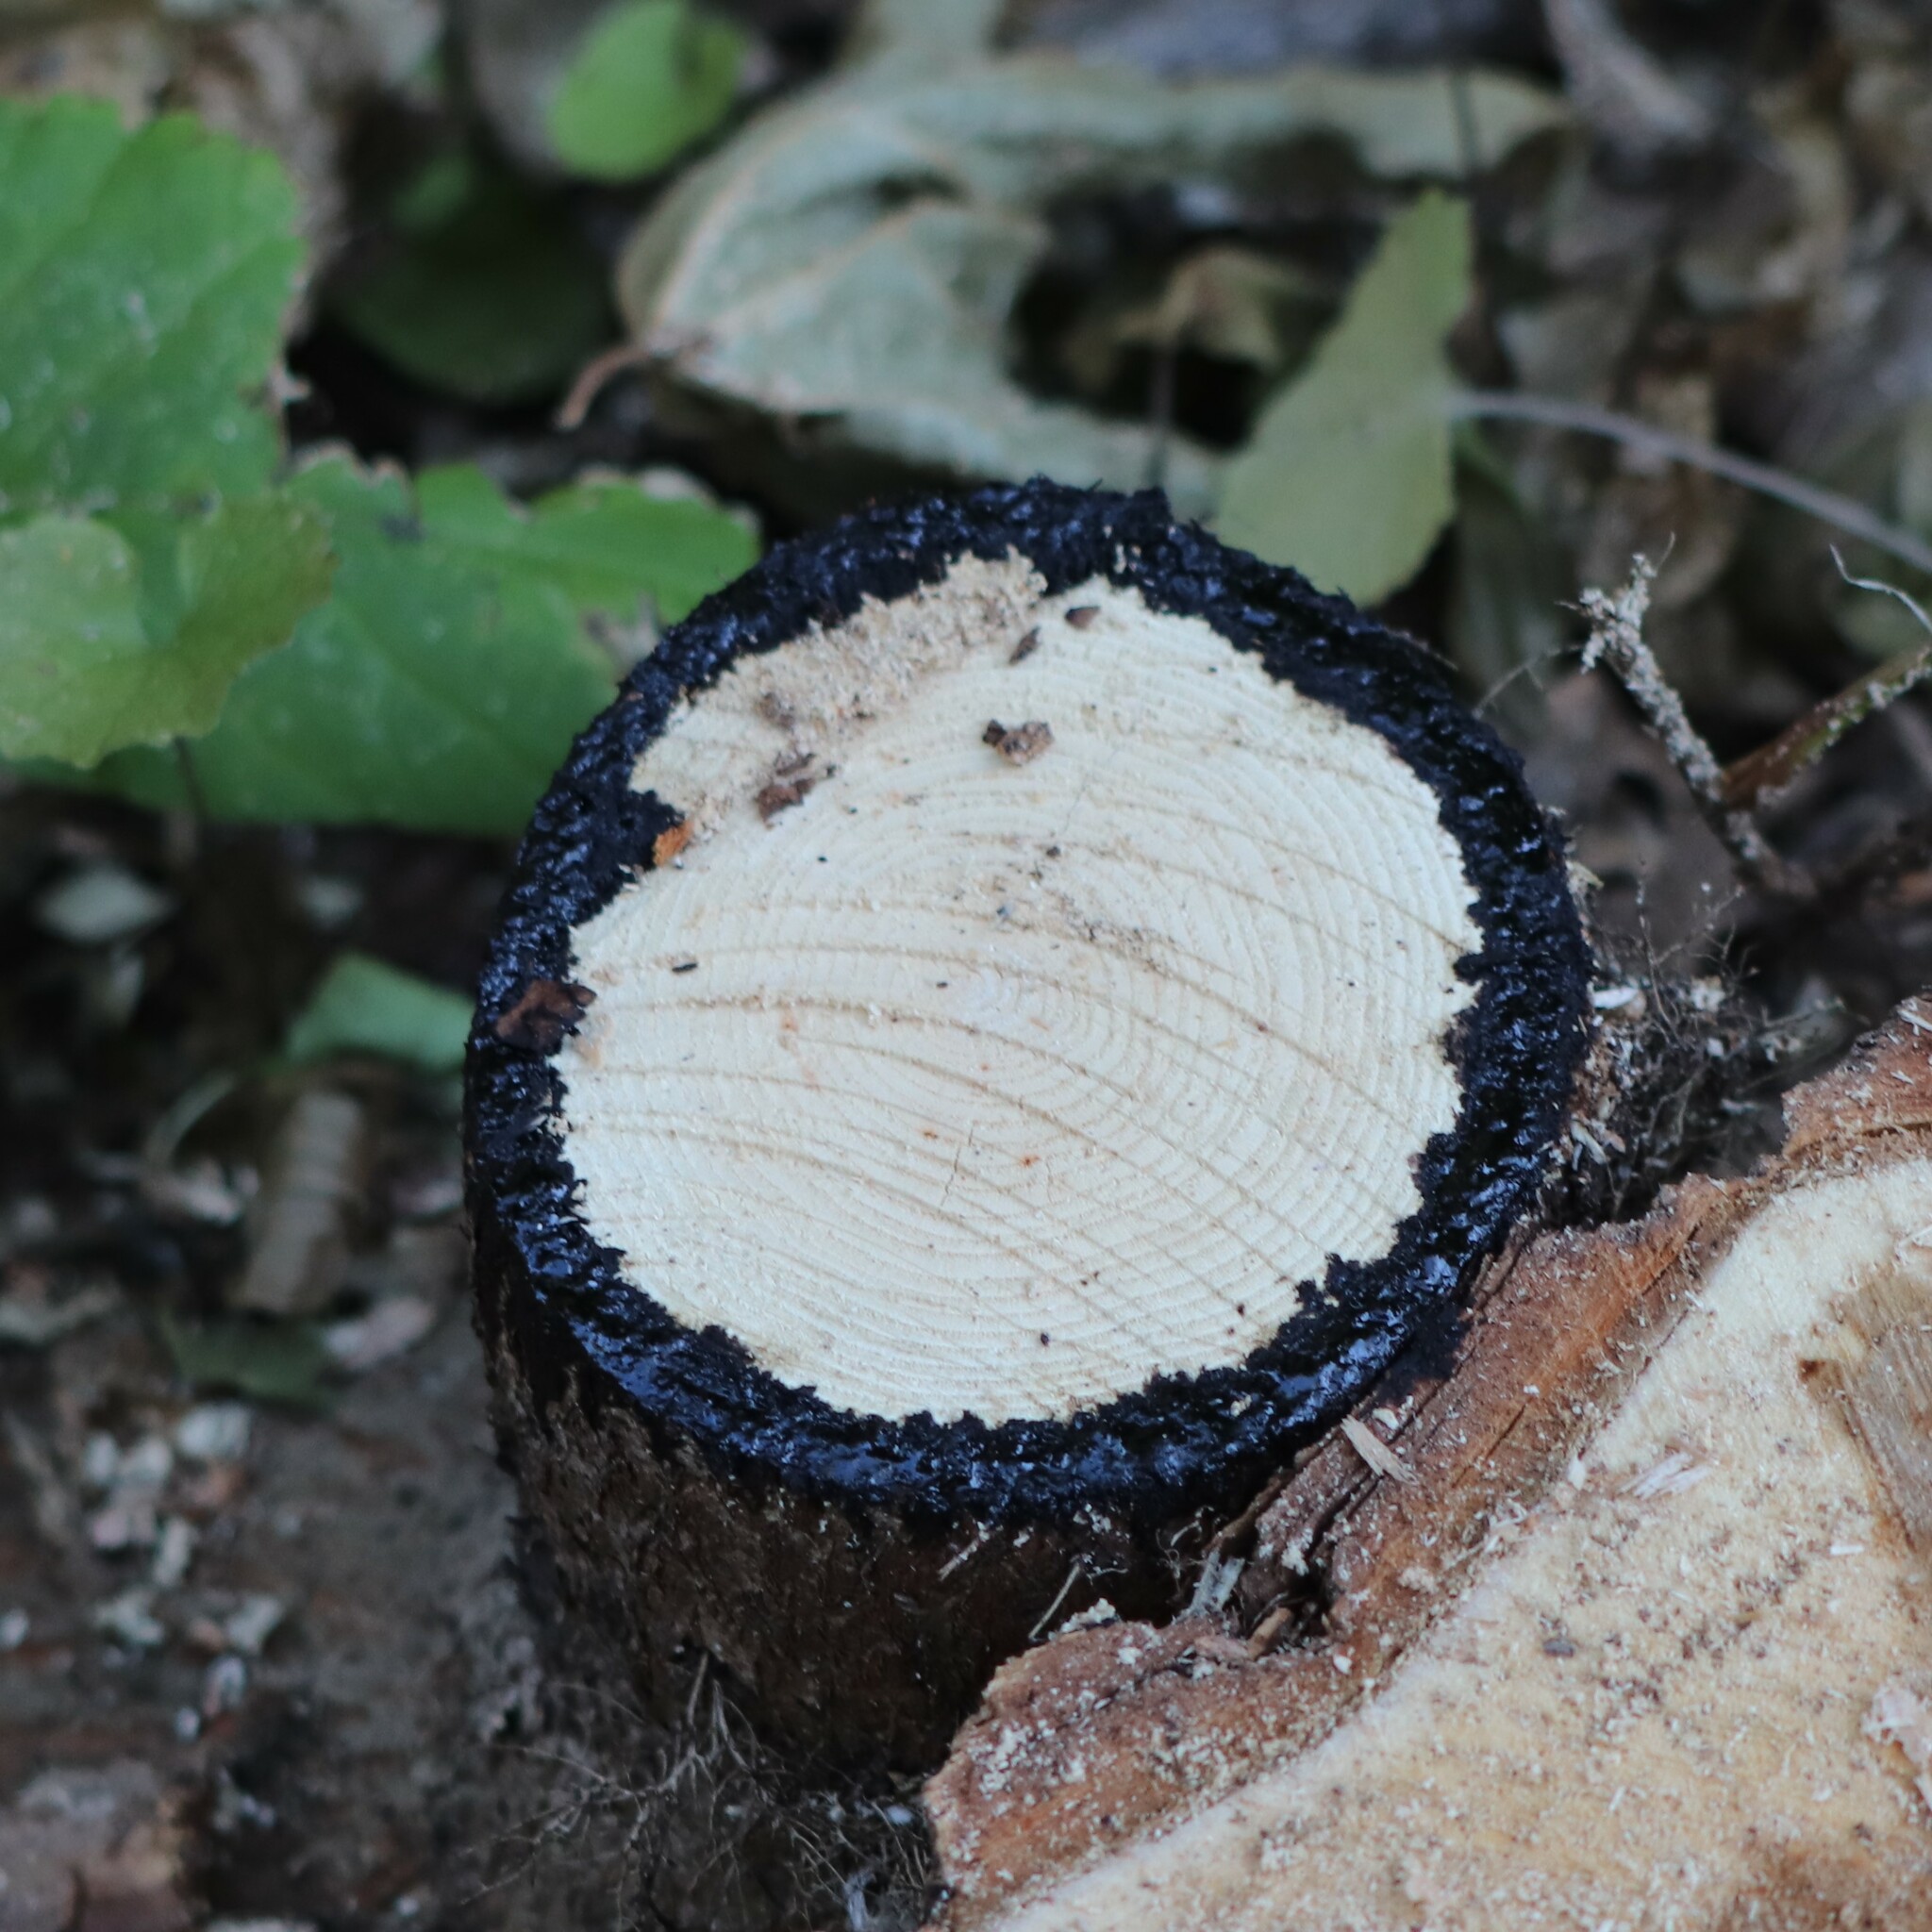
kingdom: Plantae
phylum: Tracheophyta
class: Magnoliopsida
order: Sapindales
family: Anacardiaceae
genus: Toxicodendron
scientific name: Toxicodendron radicans
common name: Poison ivy
